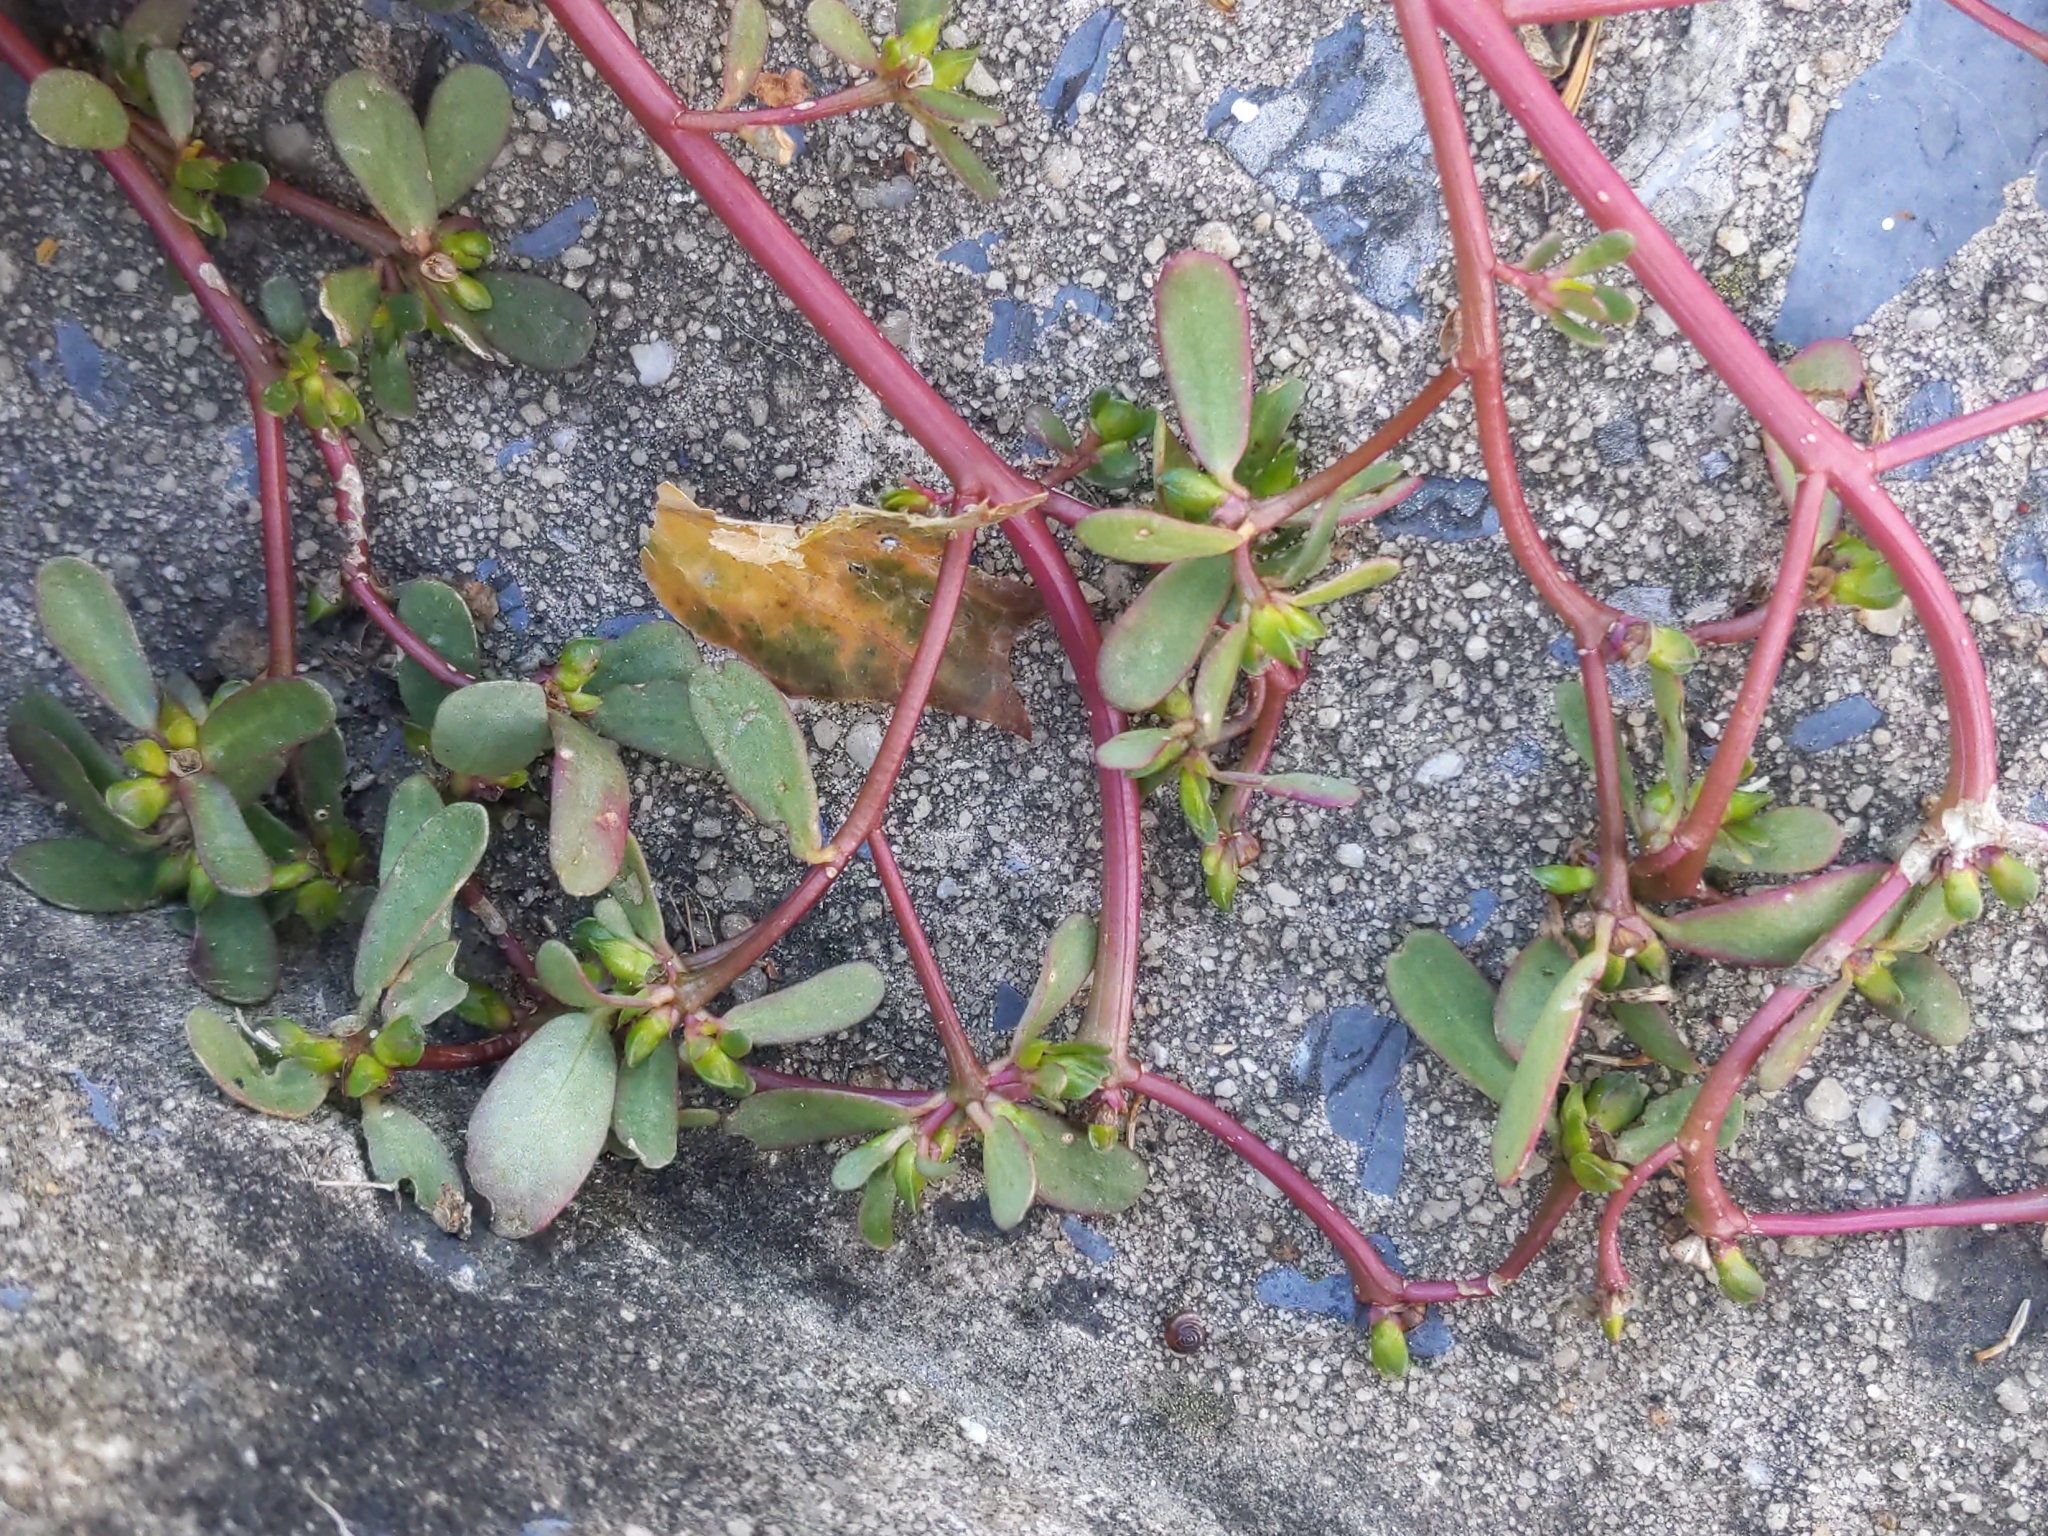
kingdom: Plantae
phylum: Tracheophyta
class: Magnoliopsida
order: Caryophyllales
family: Portulacaceae
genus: Portulaca
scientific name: Portulaca oleracea
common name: Common purslane
